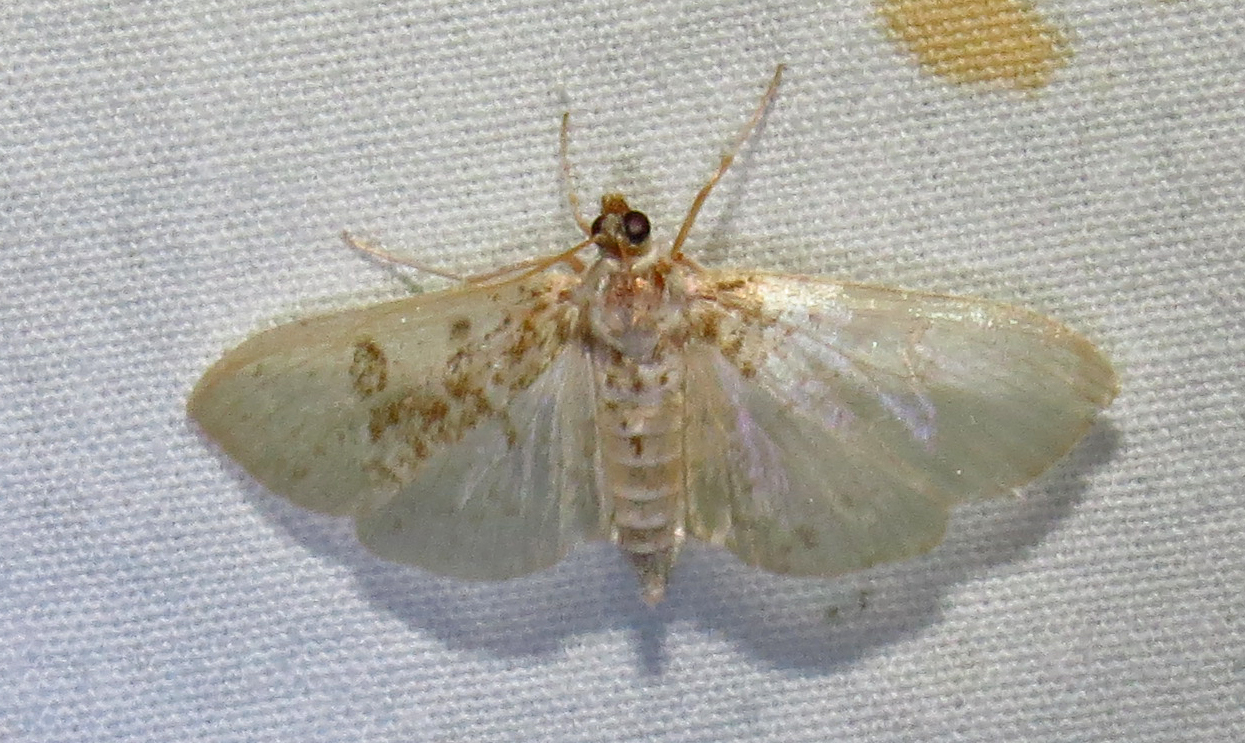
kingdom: Animalia
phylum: Arthropoda
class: Insecta
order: Lepidoptera
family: Crambidae
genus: Palpita
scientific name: Palpita freemanalis
